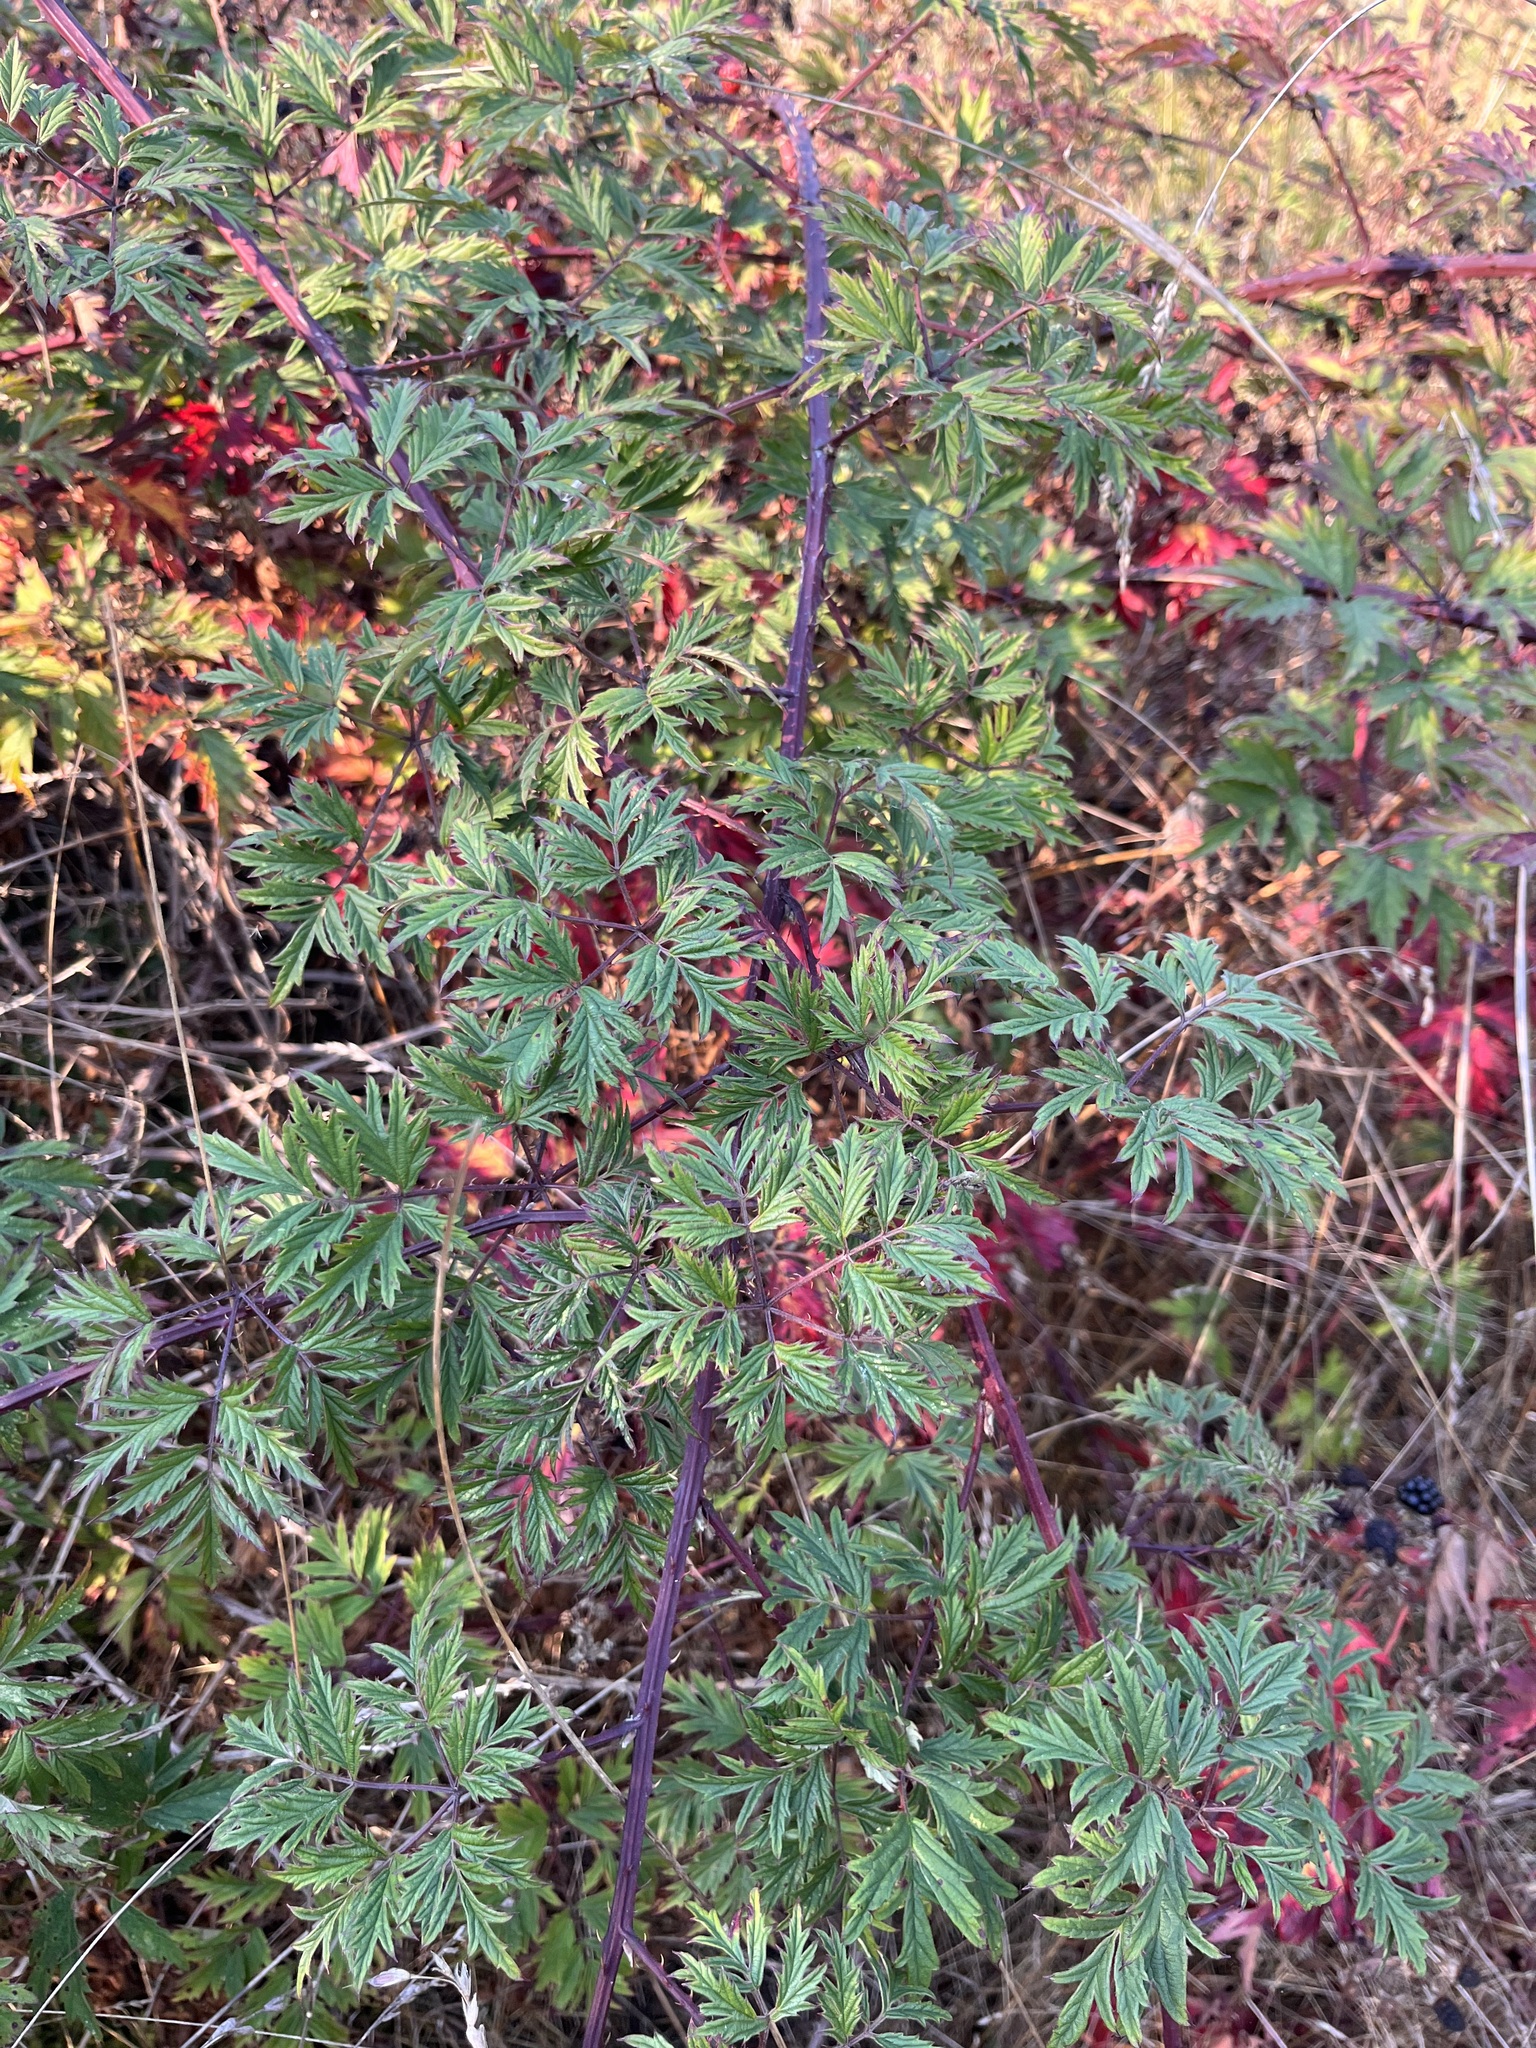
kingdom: Plantae
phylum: Tracheophyta
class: Magnoliopsida
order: Rosales
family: Rosaceae
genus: Rubus
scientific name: Rubus laciniatus
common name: Evergreen blackberry
